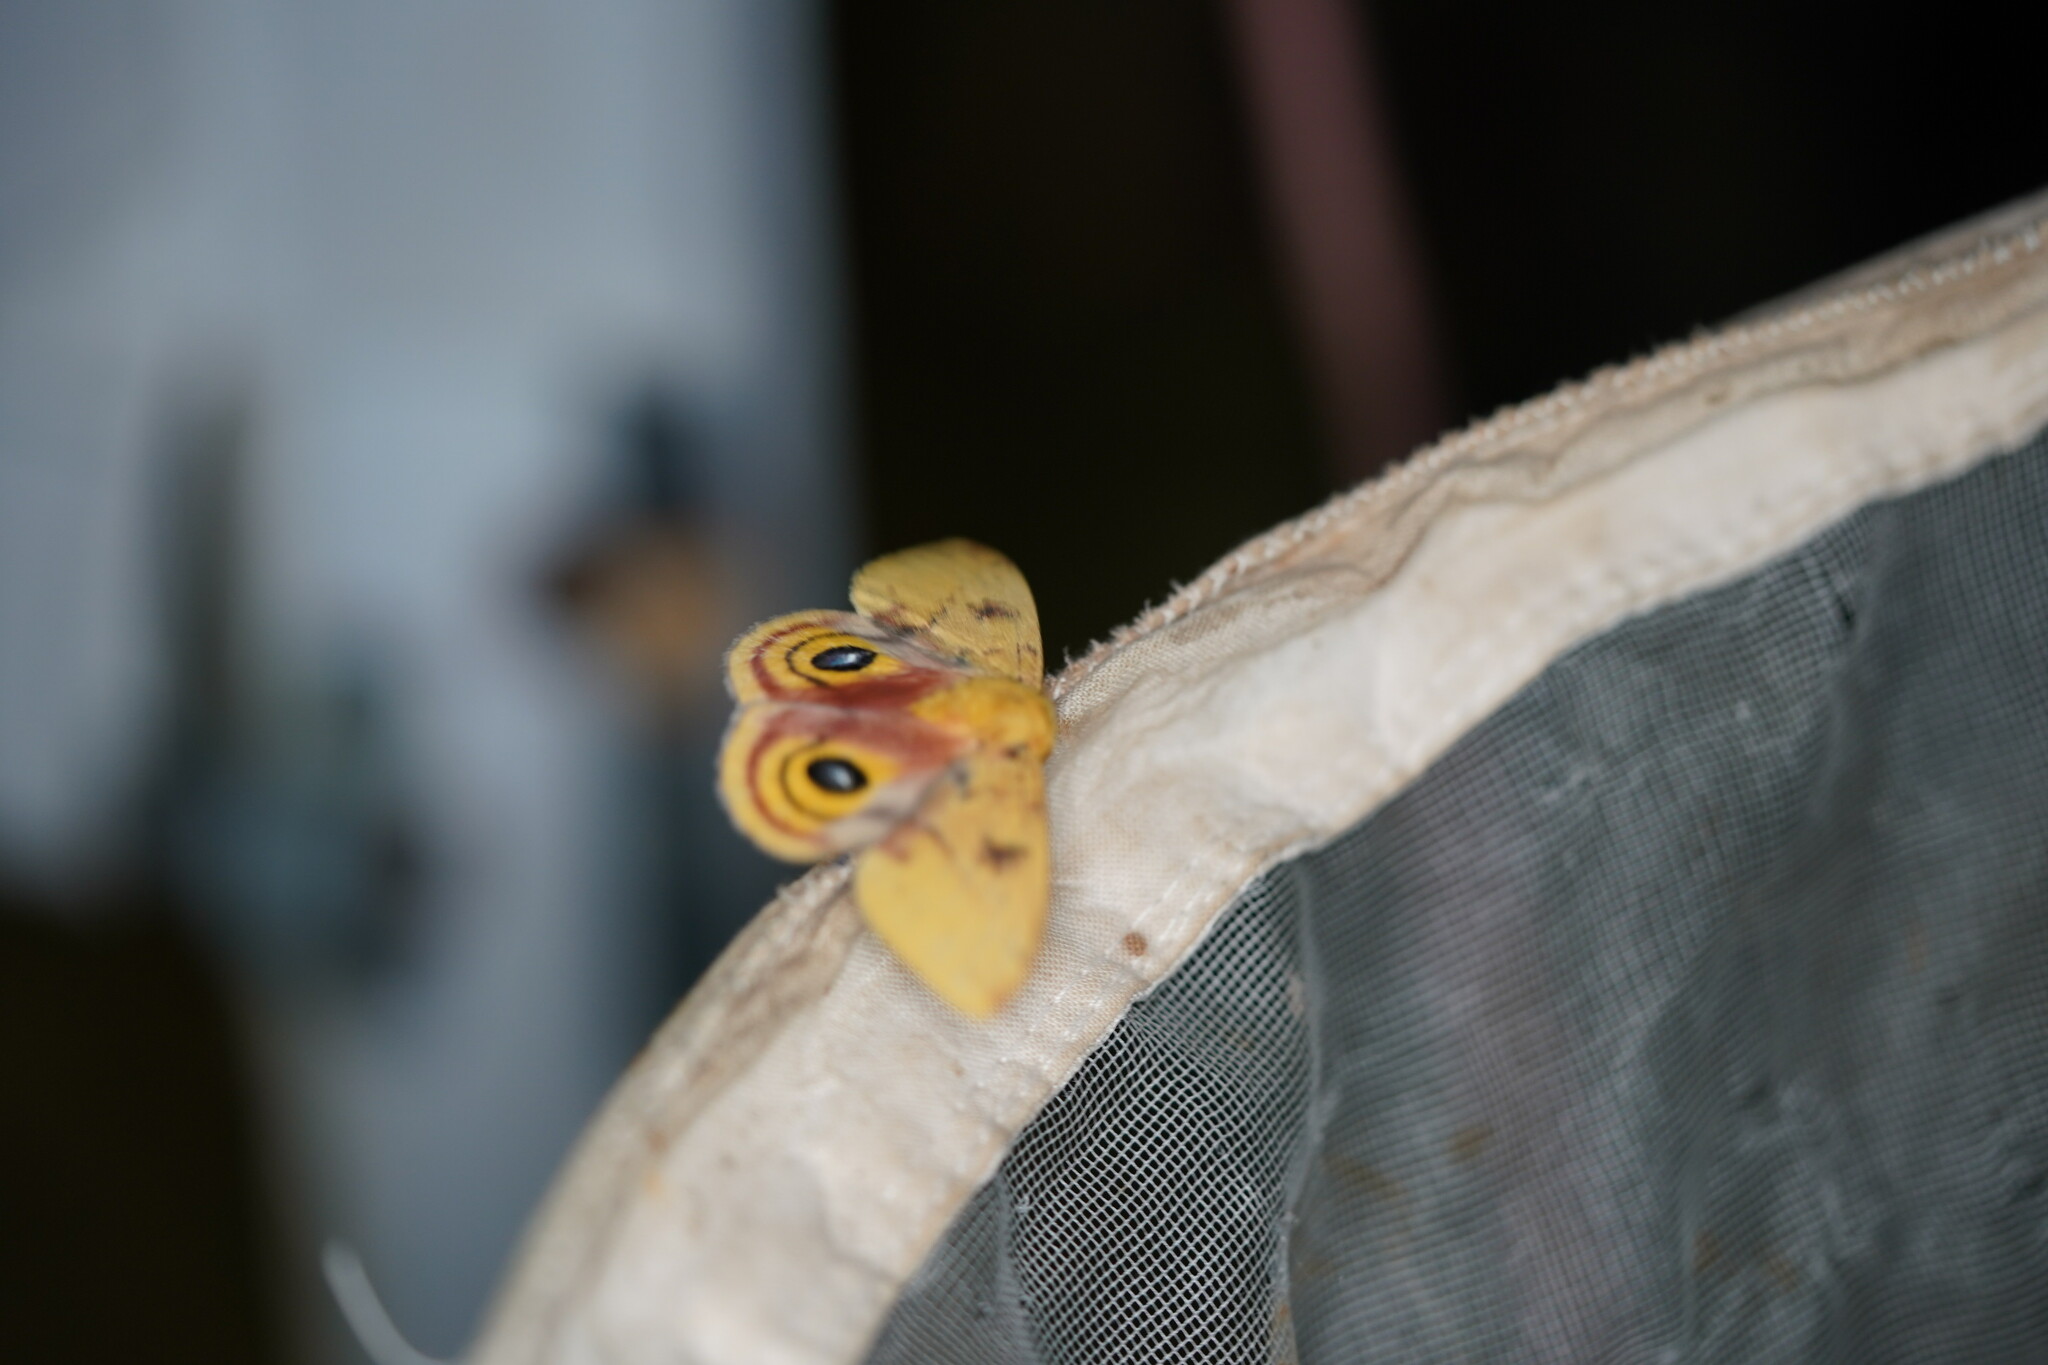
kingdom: Animalia
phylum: Arthropoda
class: Insecta
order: Lepidoptera
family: Saturniidae
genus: Automeris
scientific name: Automeris io
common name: Io moth
